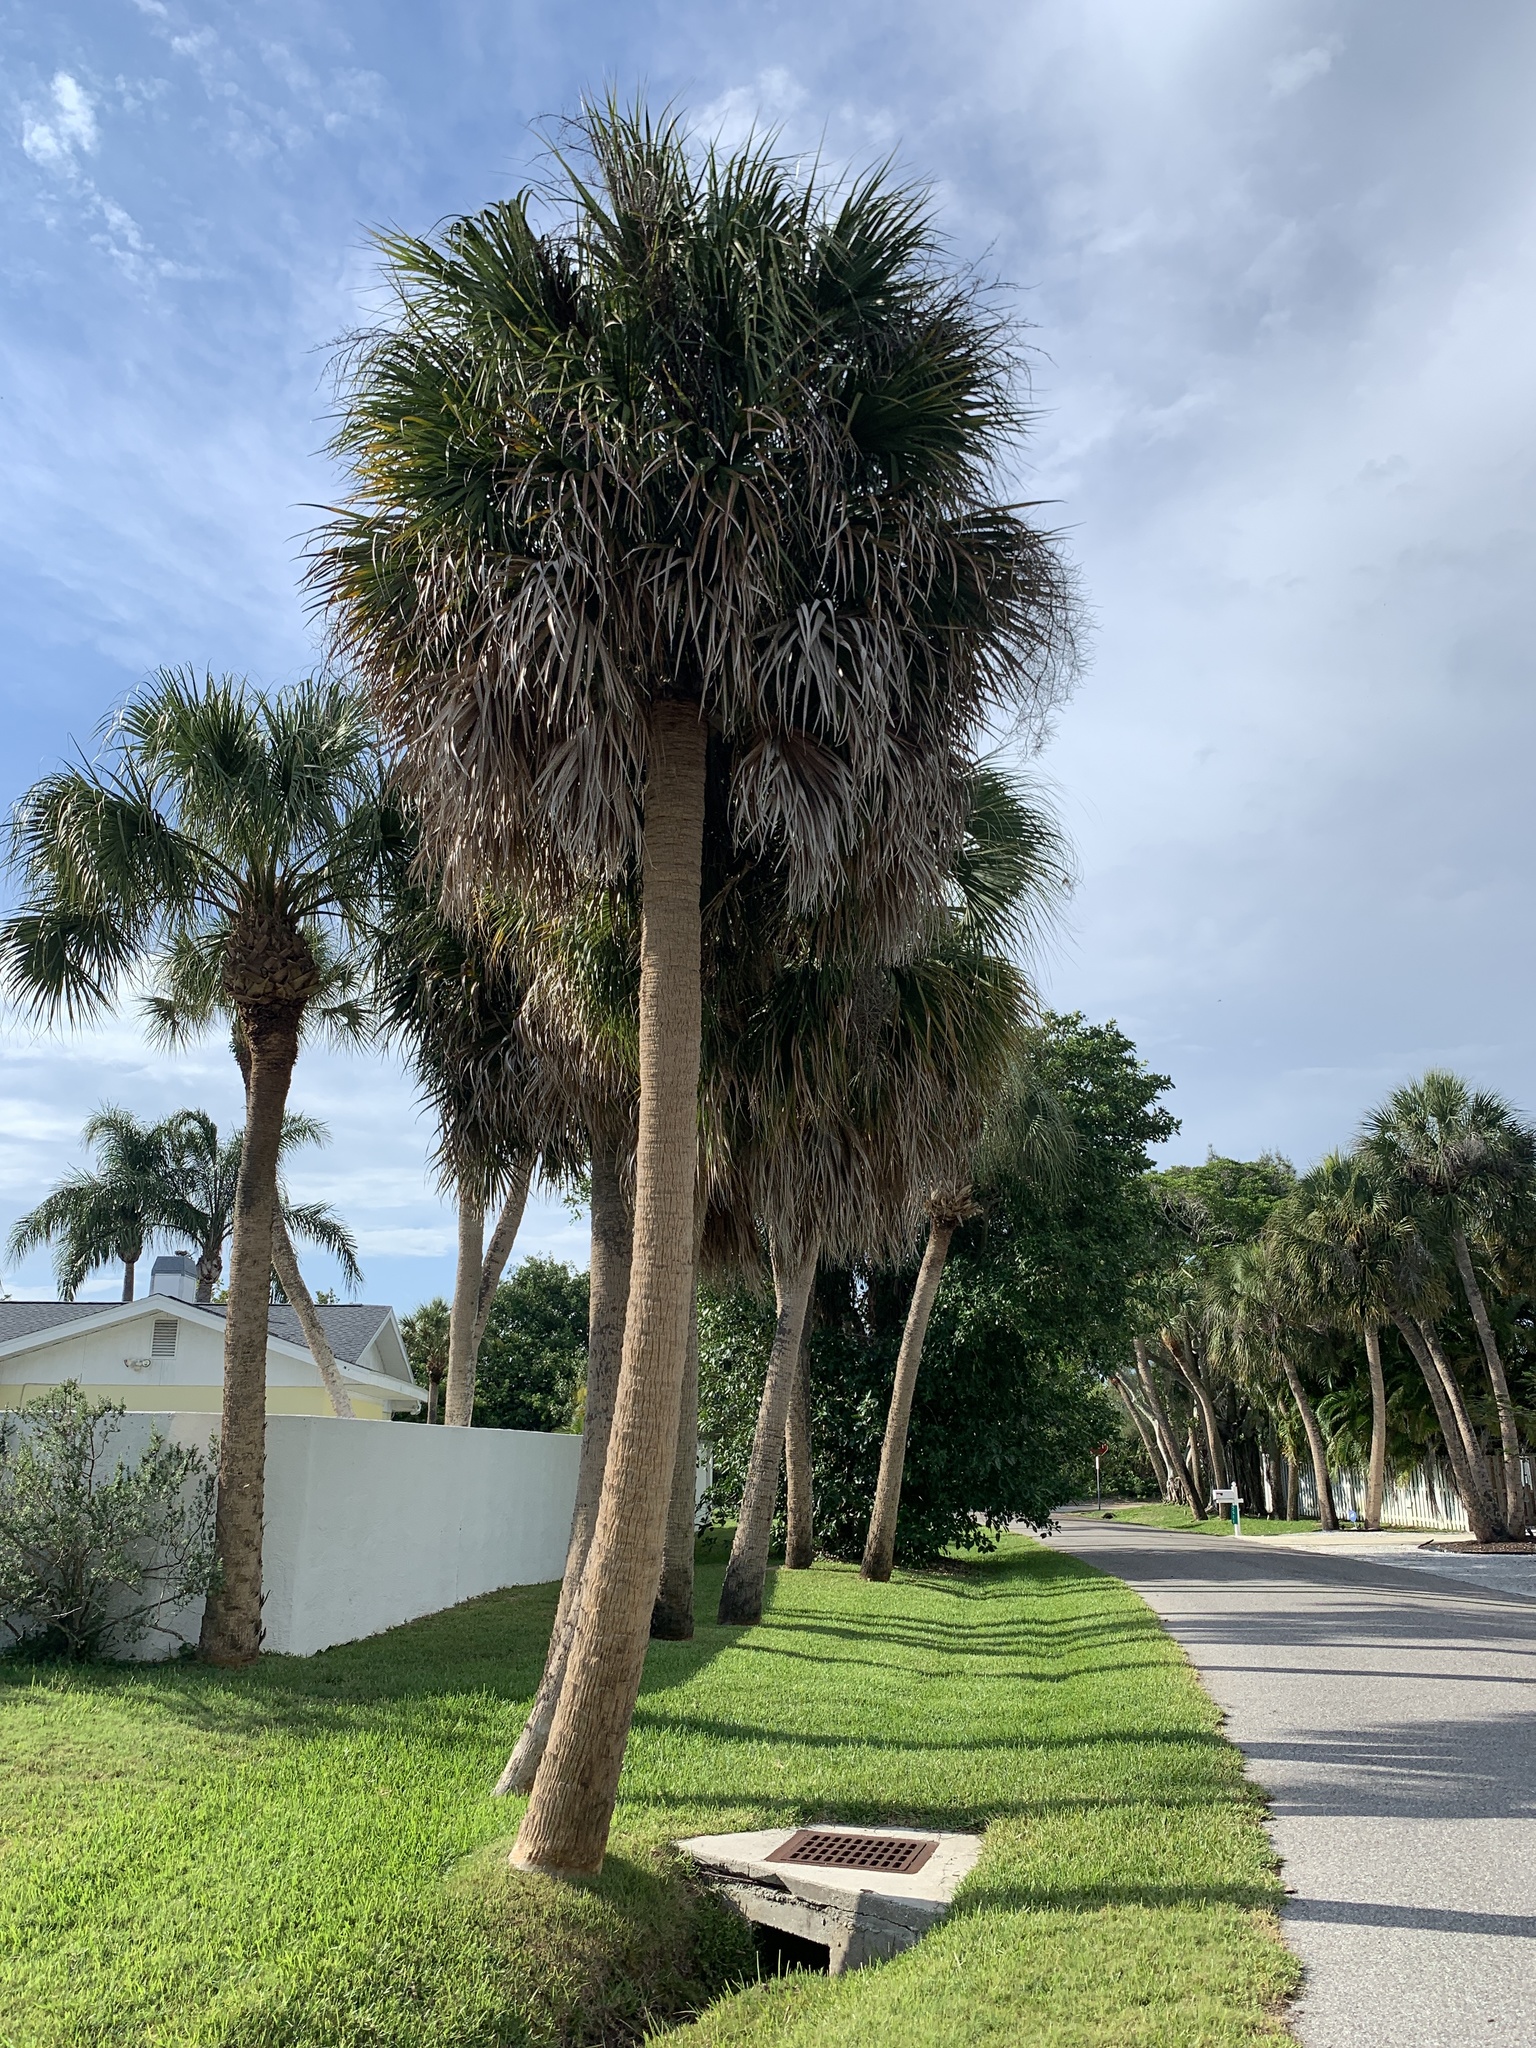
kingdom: Plantae
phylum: Tracheophyta
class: Liliopsida
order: Arecales
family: Arecaceae
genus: Sabal
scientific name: Sabal palmetto
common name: Blue palmetto
